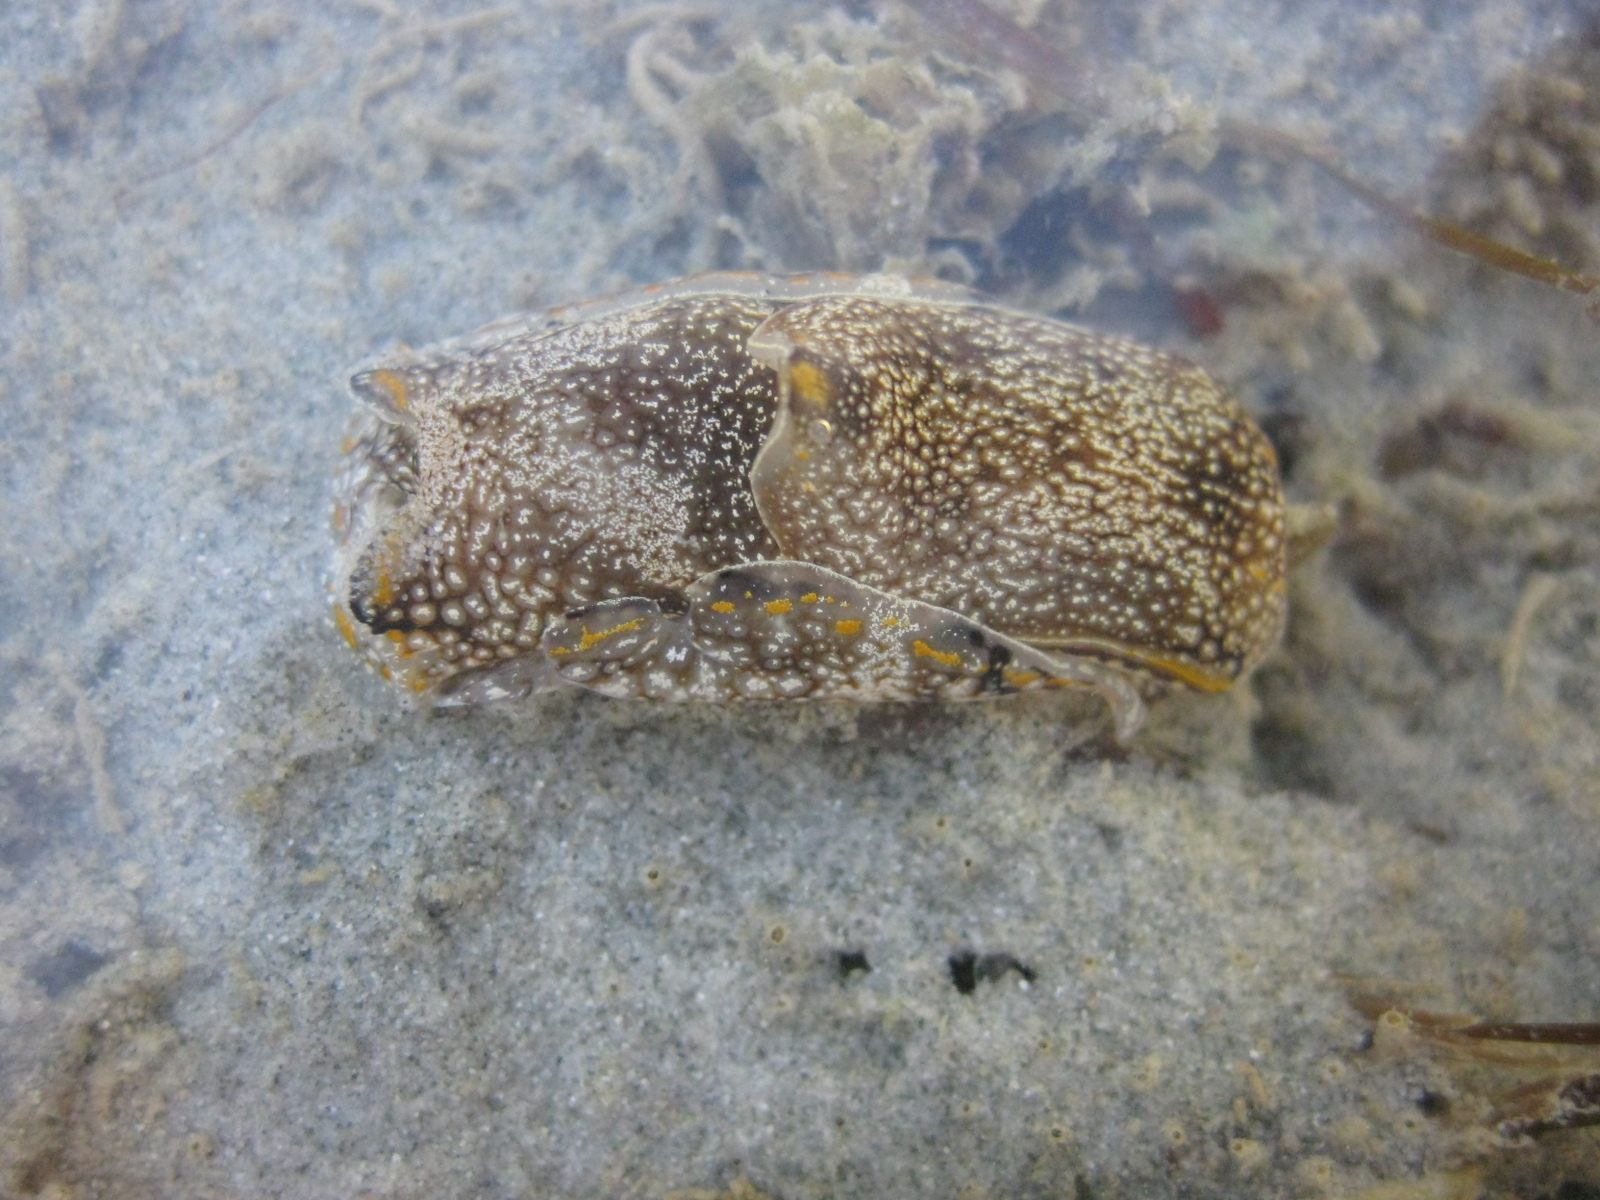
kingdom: Animalia
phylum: Mollusca
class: Gastropoda
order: Cephalaspidea
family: Aglajidae
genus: Philinopsis
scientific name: Philinopsis taronga
